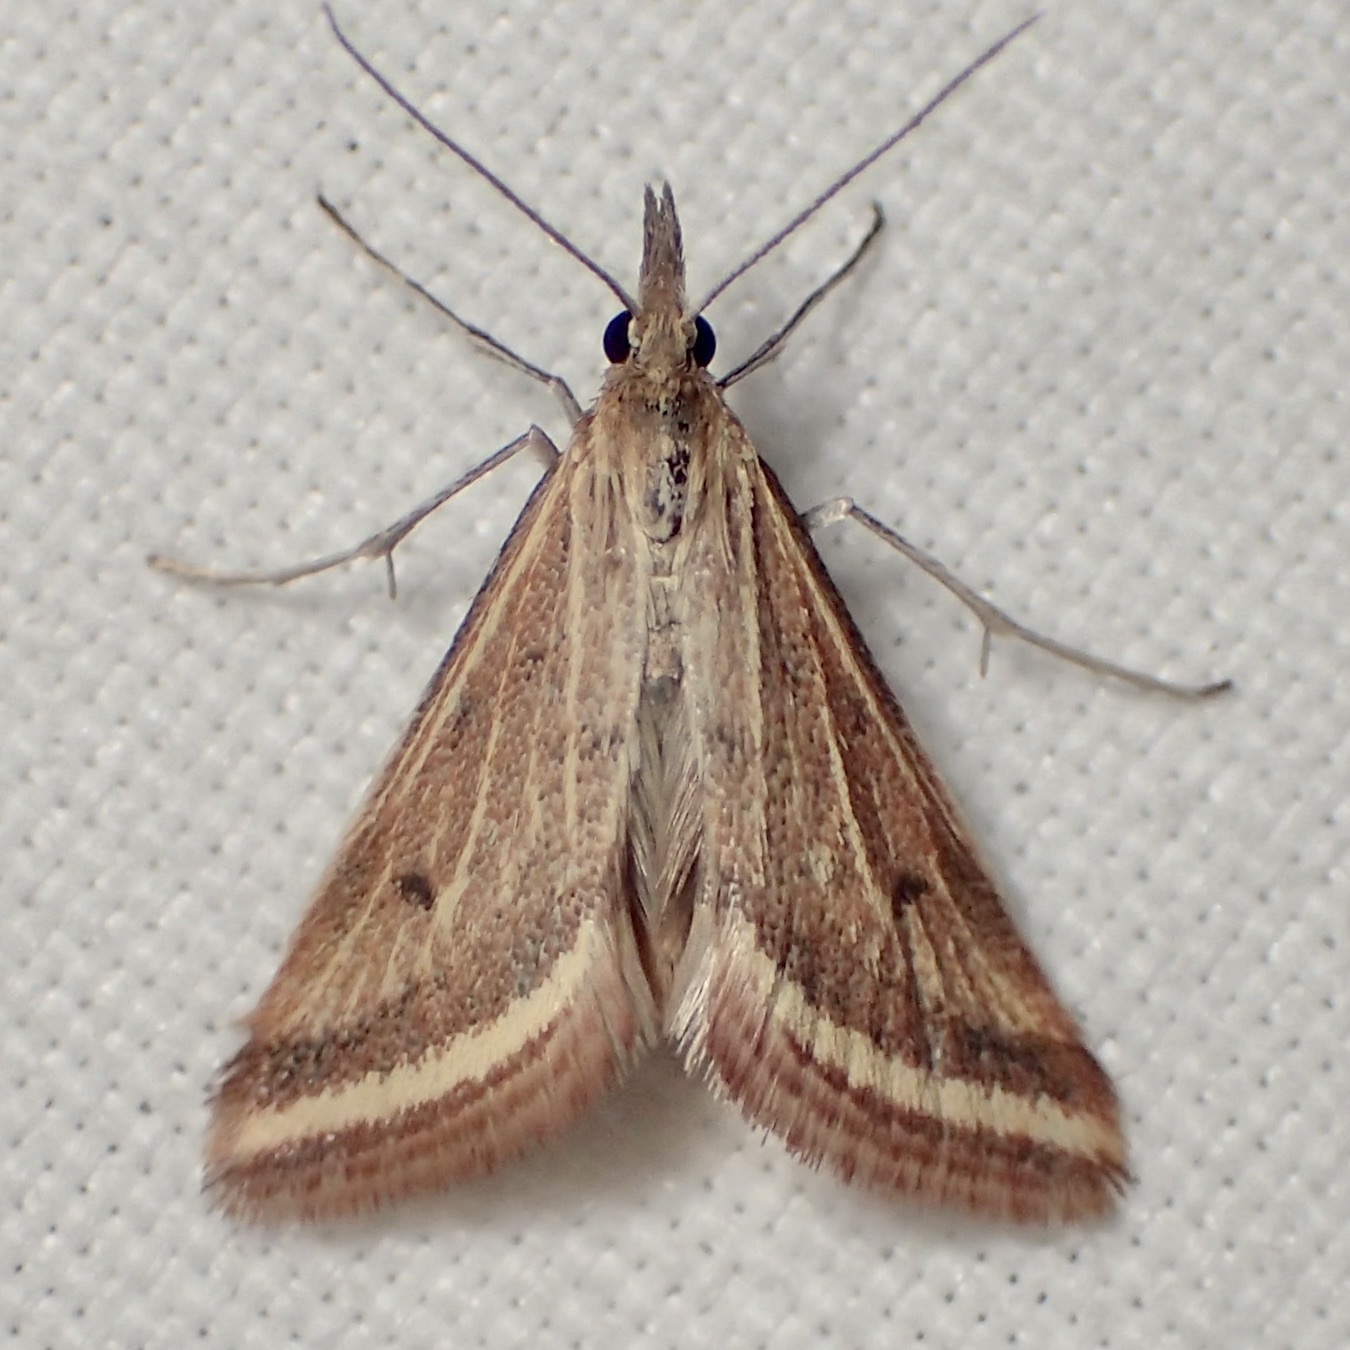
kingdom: Animalia
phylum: Arthropoda
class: Insecta
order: Lepidoptera
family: Crambidae
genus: Microtheoris
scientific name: Microtheoris ophionalis
